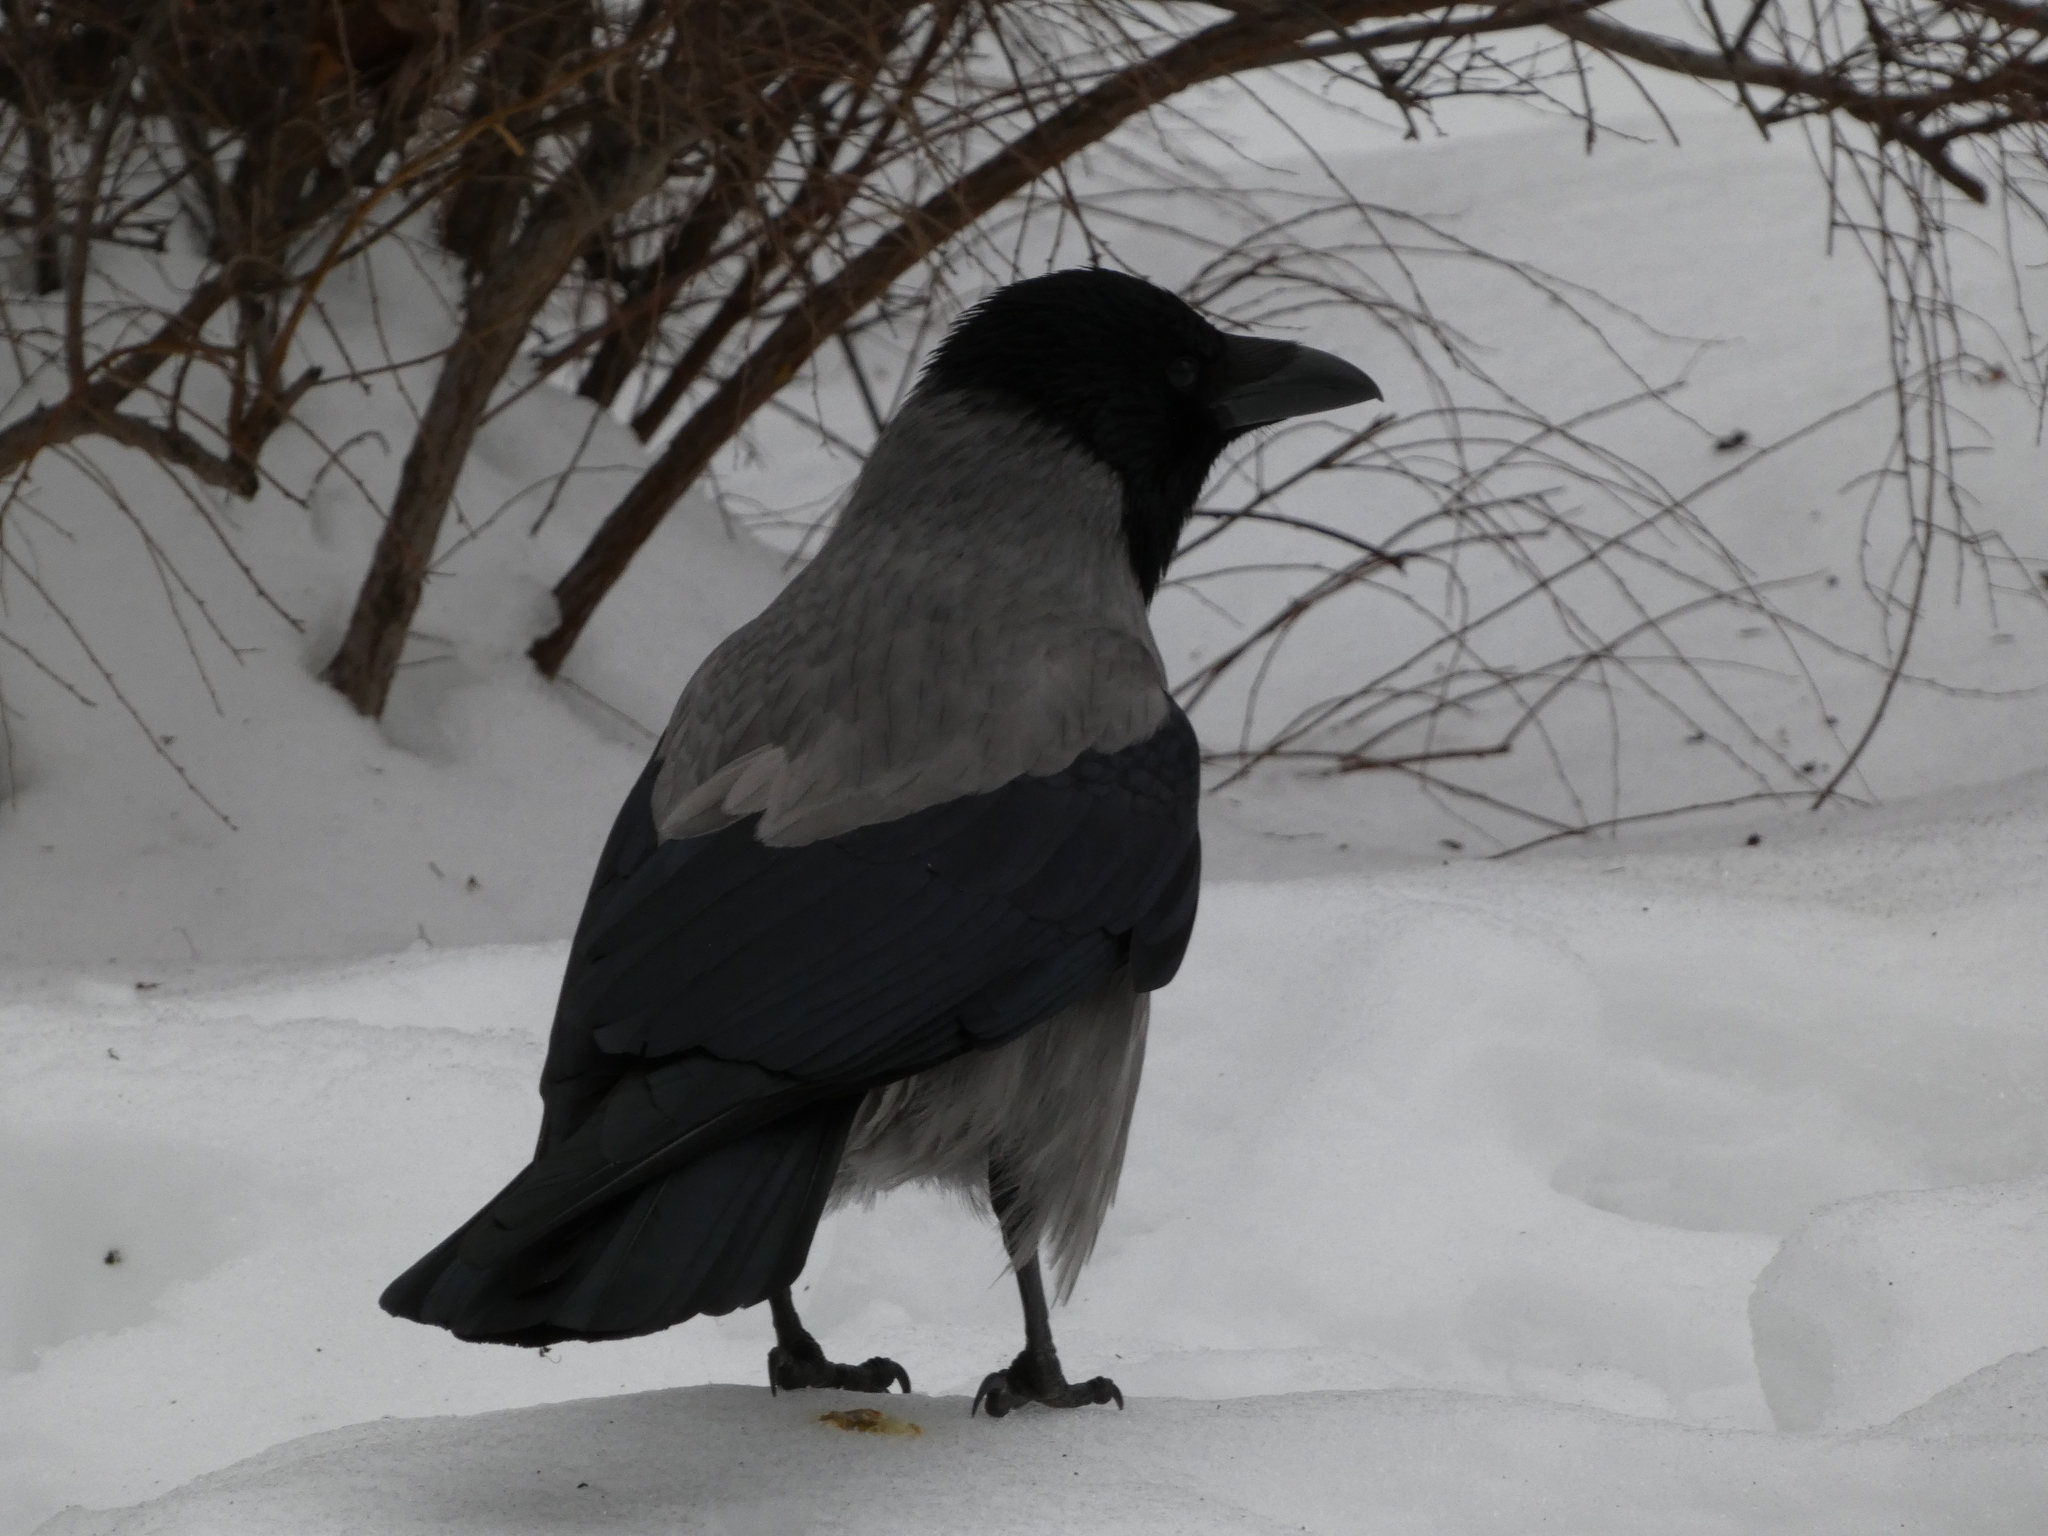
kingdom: Animalia
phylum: Chordata
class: Aves
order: Passeriformes
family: Corvidae
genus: Corvus
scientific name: Corvus cornix
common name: Hooded crow
